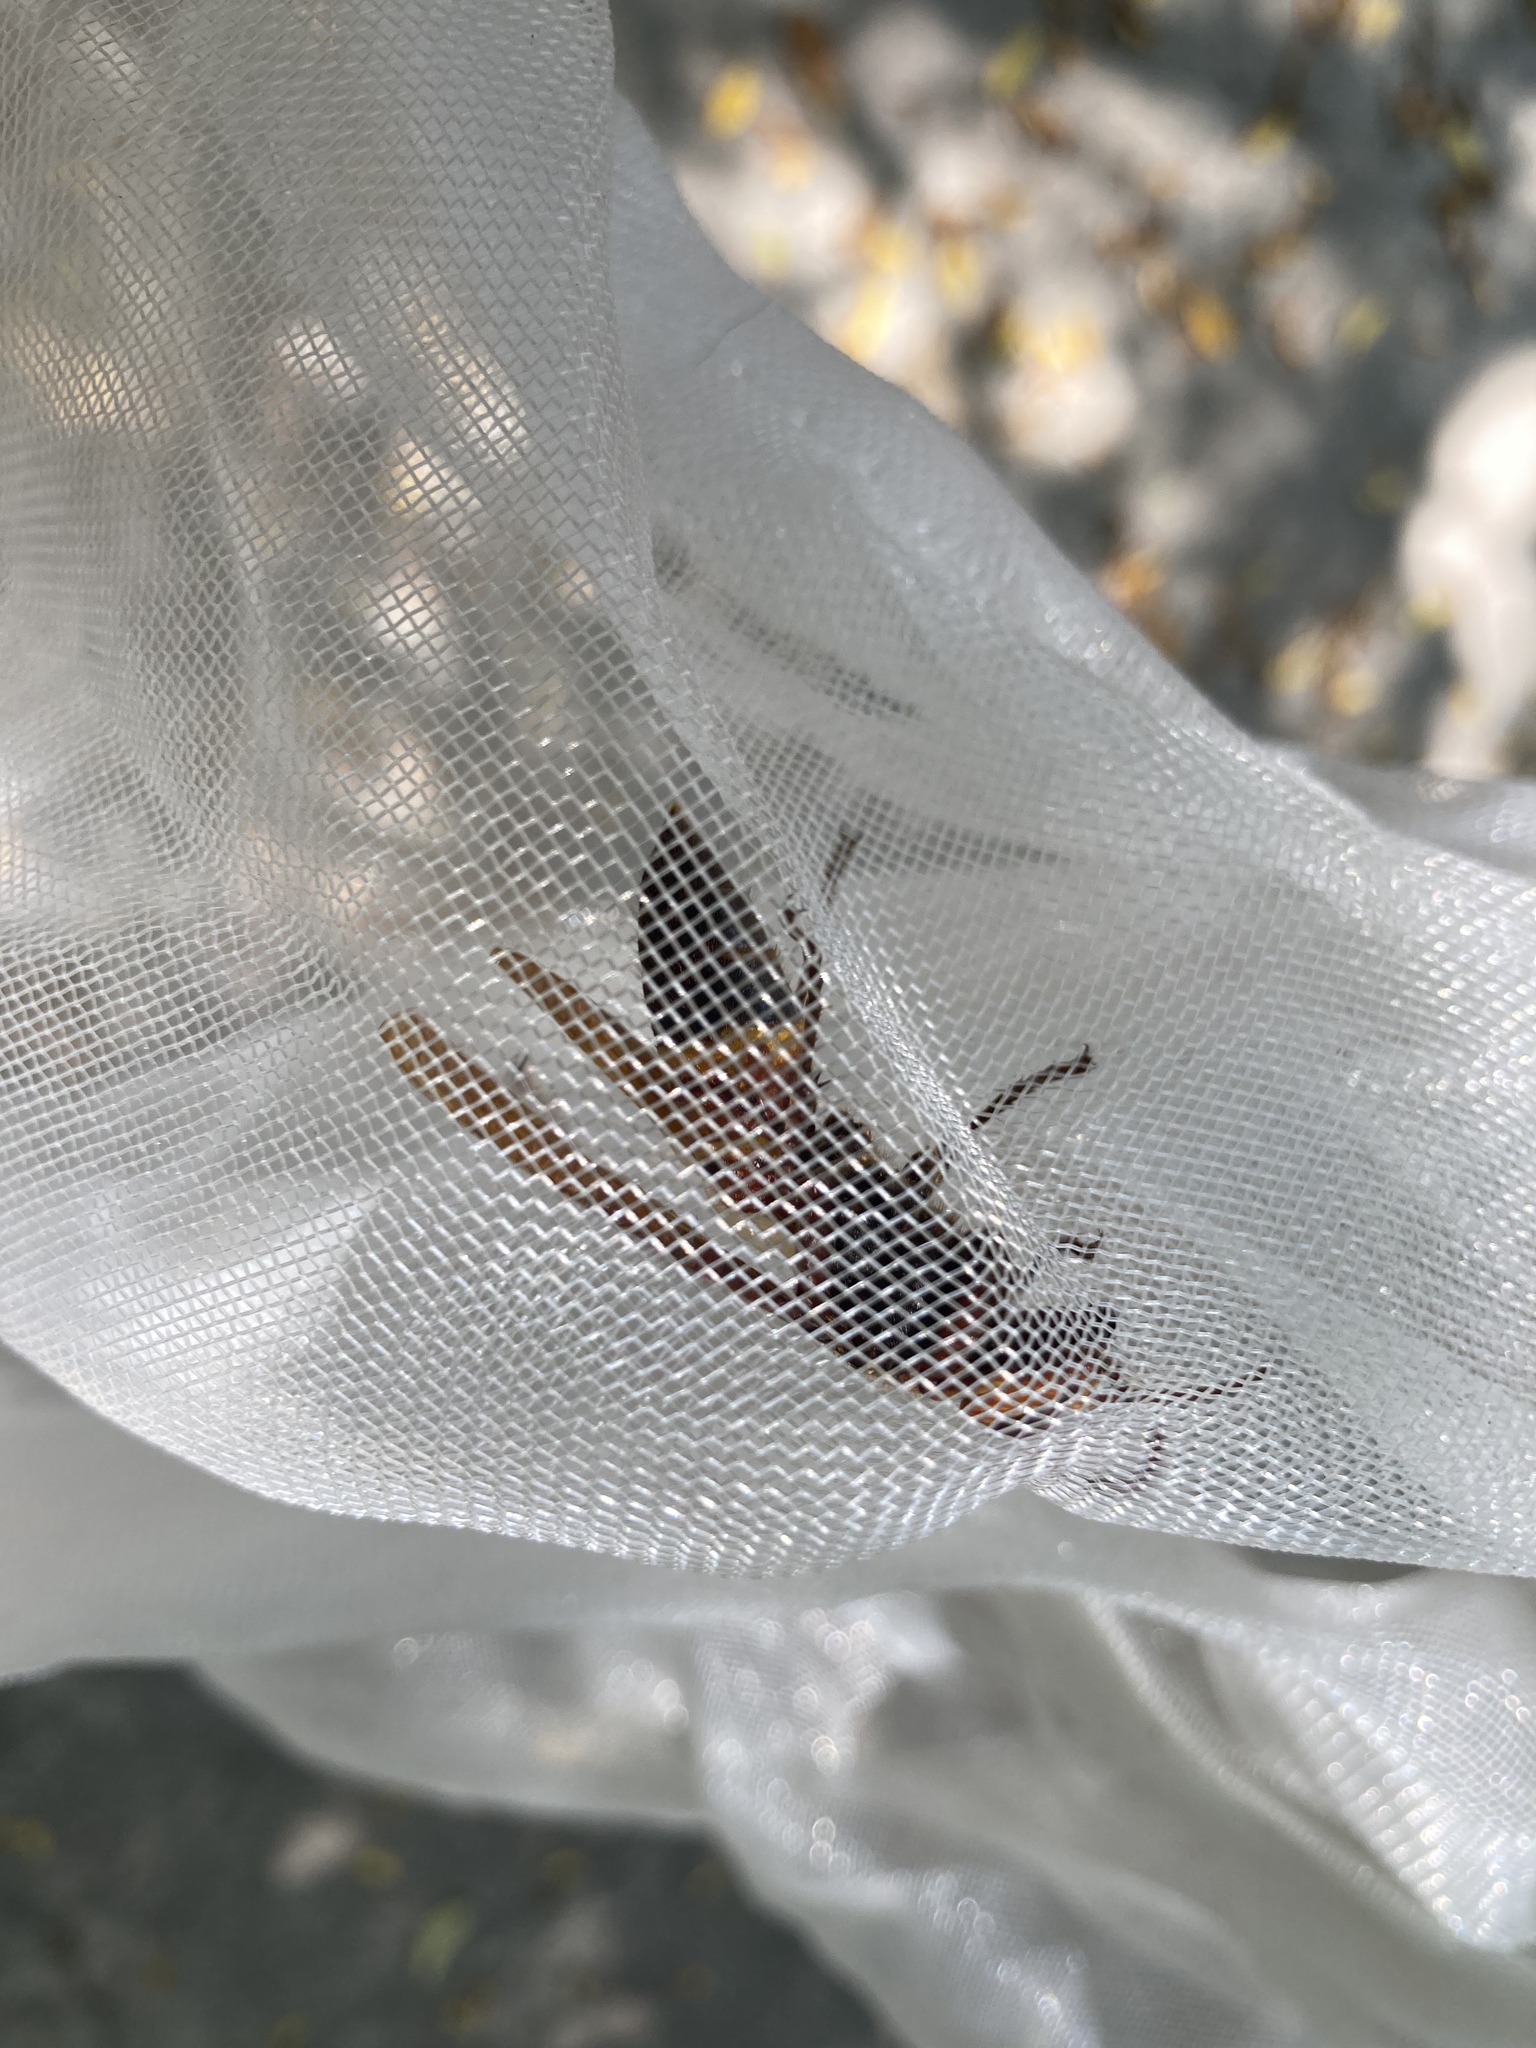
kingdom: Animalia
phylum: Arthropoda
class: Insecta
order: Hymenoptera
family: Vespidae
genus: Vespa
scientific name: Vespa ducalis
